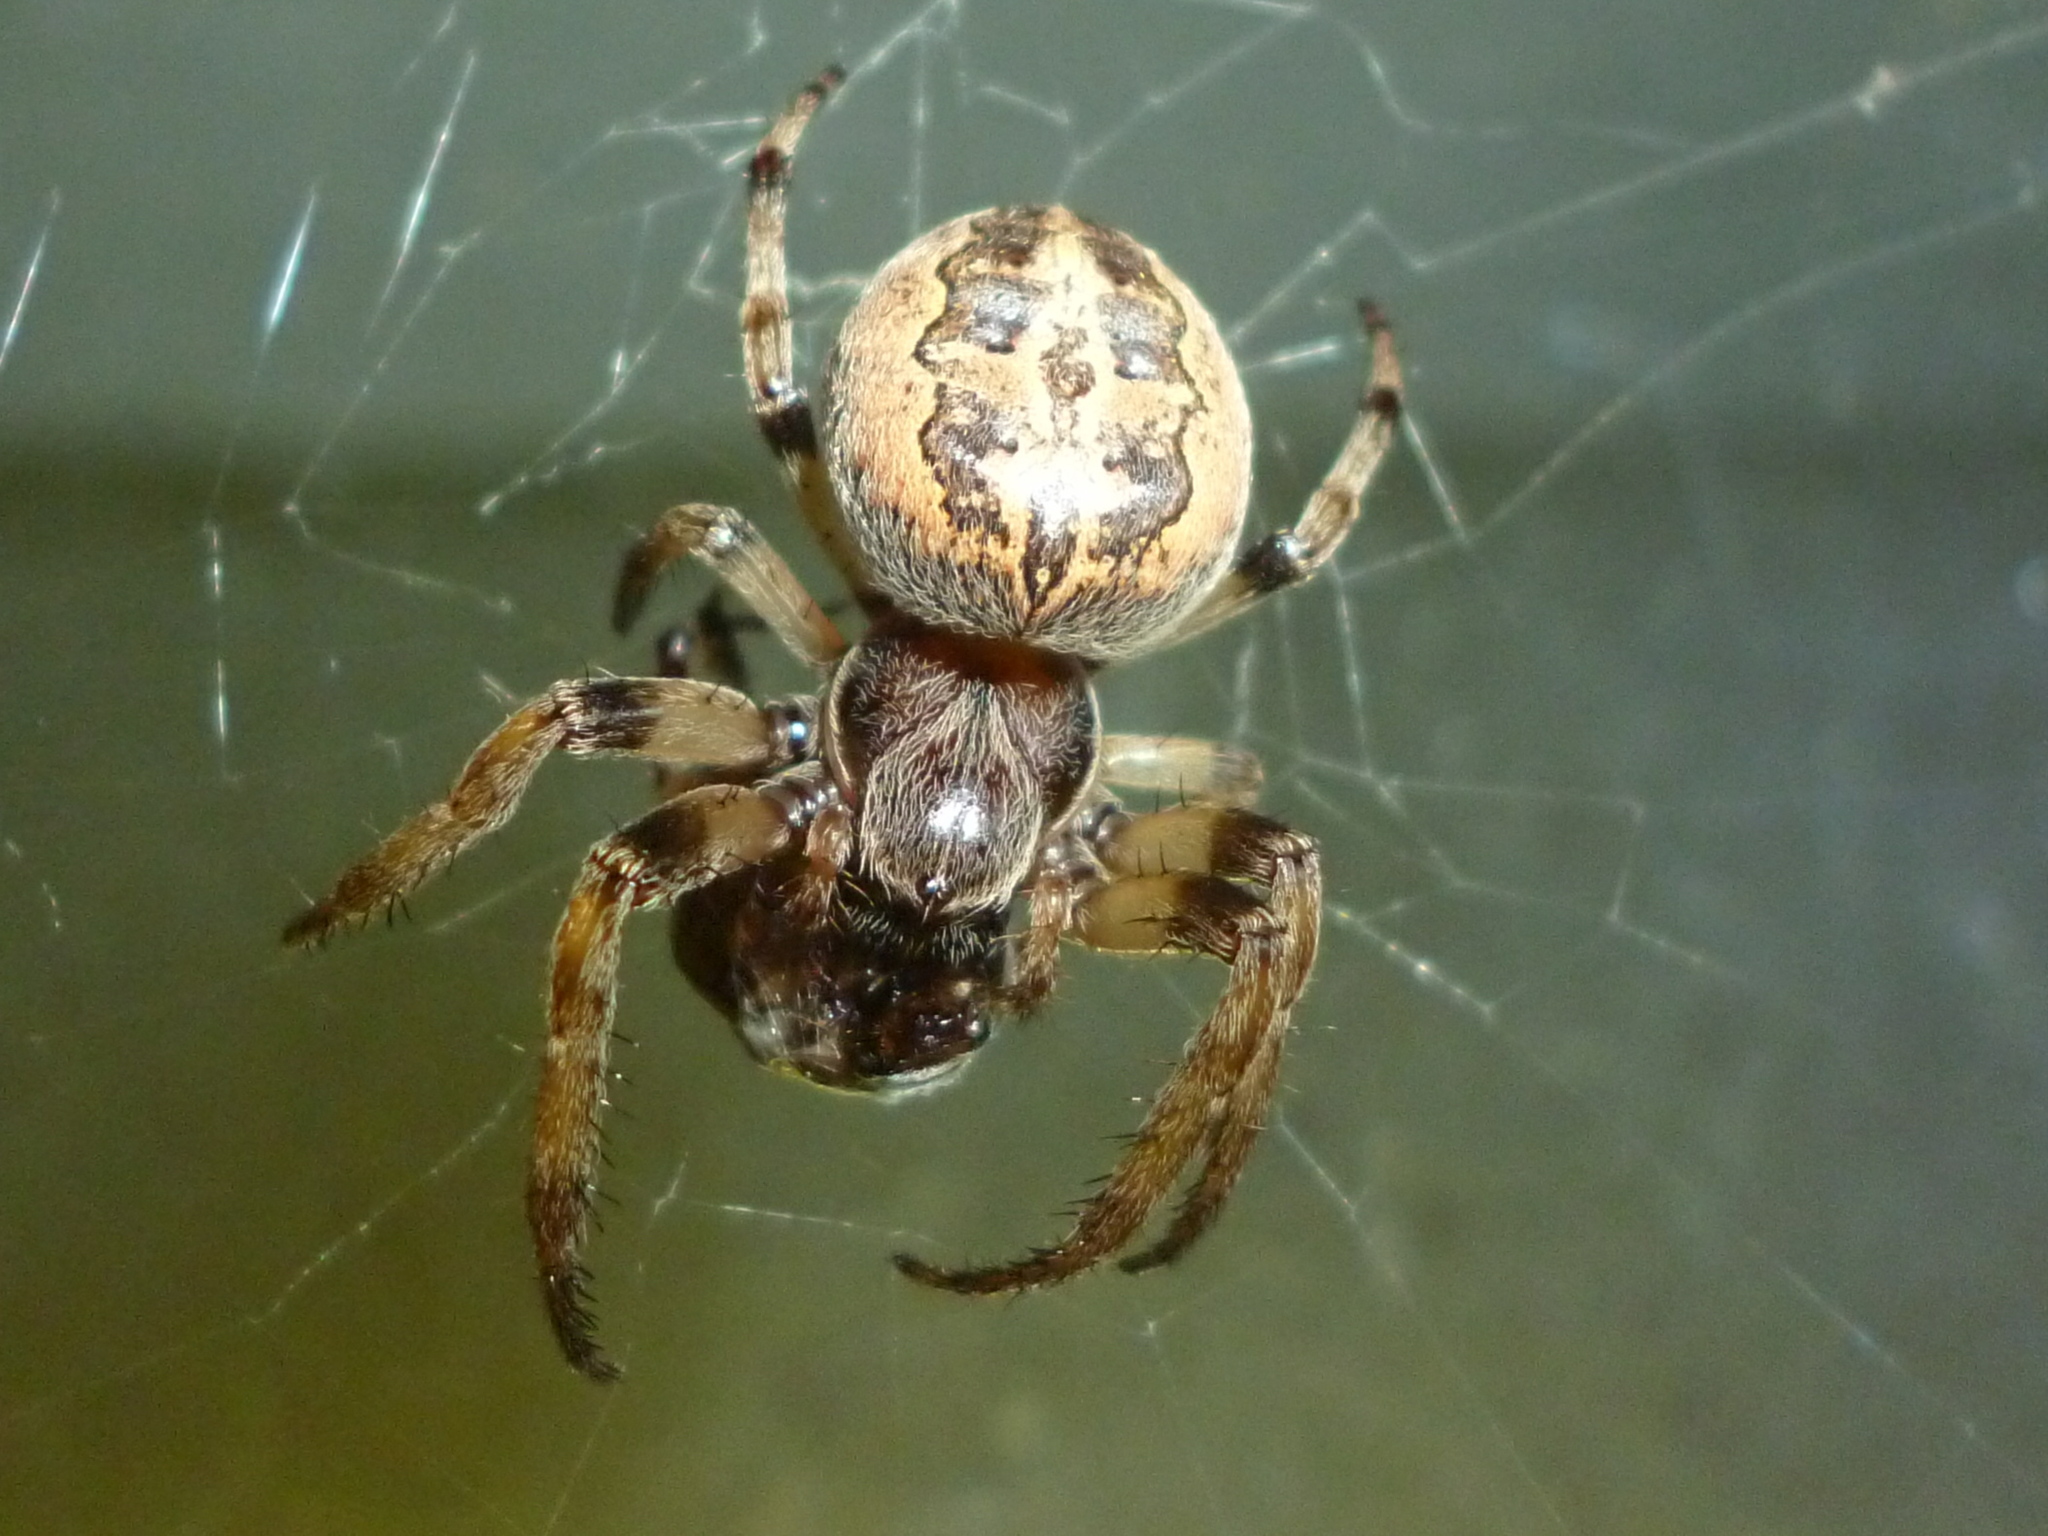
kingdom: Animalia
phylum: Arthropoda
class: Arachnida
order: Araneae
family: Araneidae
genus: Larinioides
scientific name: Larinioides cornutus
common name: Furrow orbweaver
